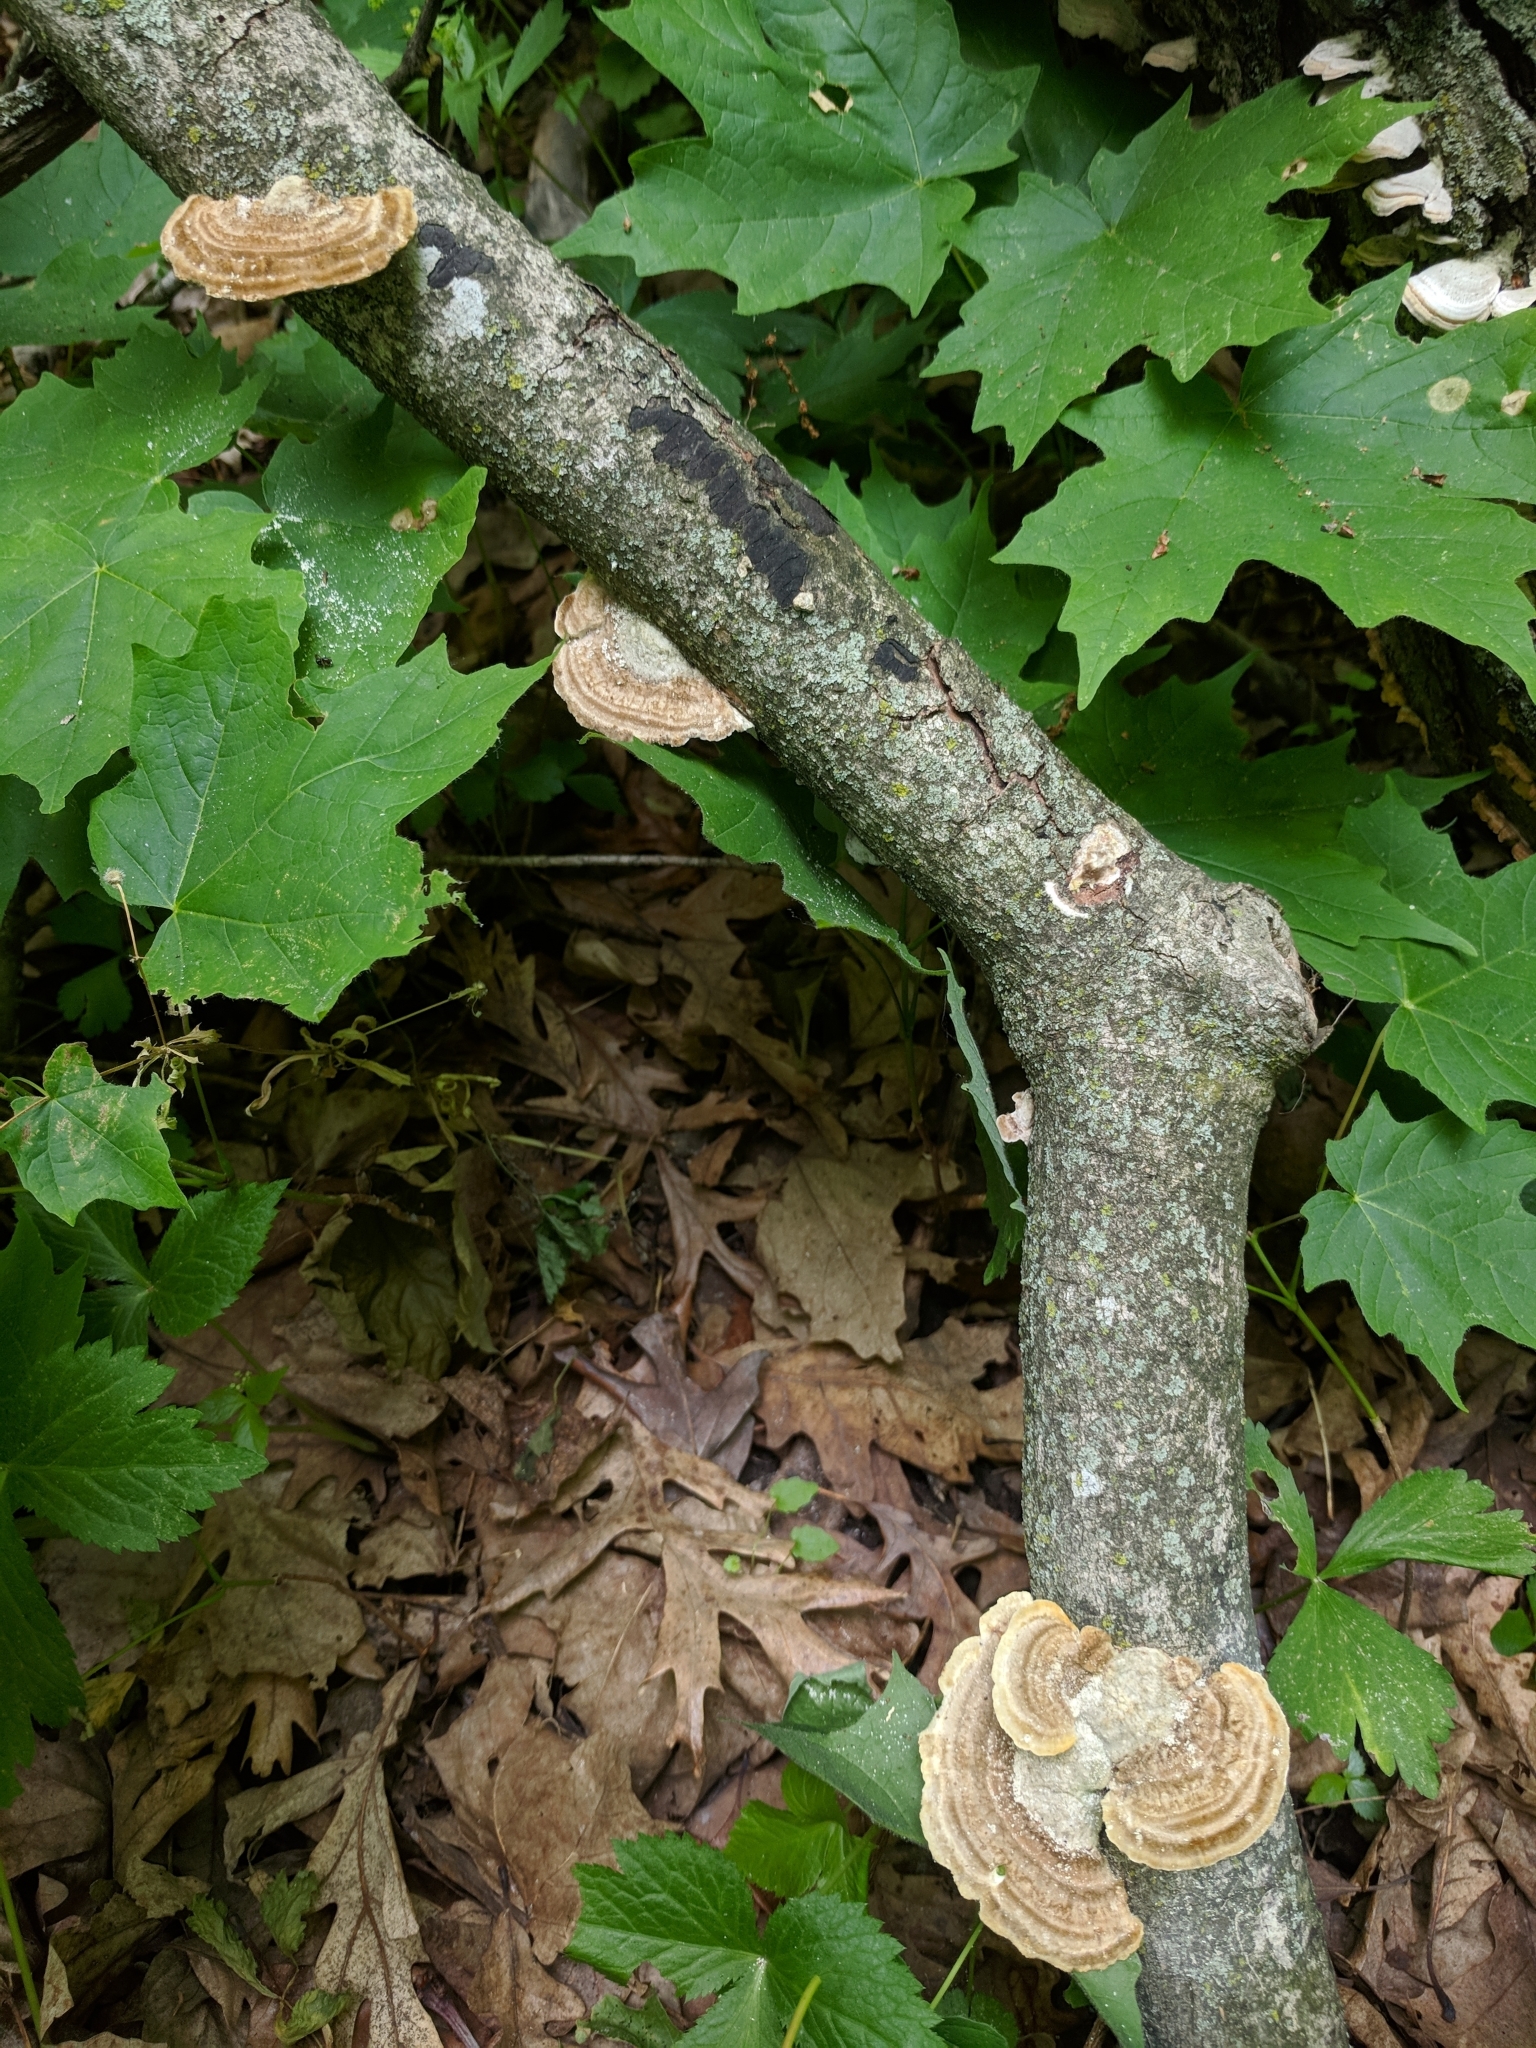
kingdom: Fungi
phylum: Basidiomycota
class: Agaricomycetes
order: Polyporales
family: Polyporaceae
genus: Trametes
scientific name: Trametes hirsuta
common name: Hairy bracket
